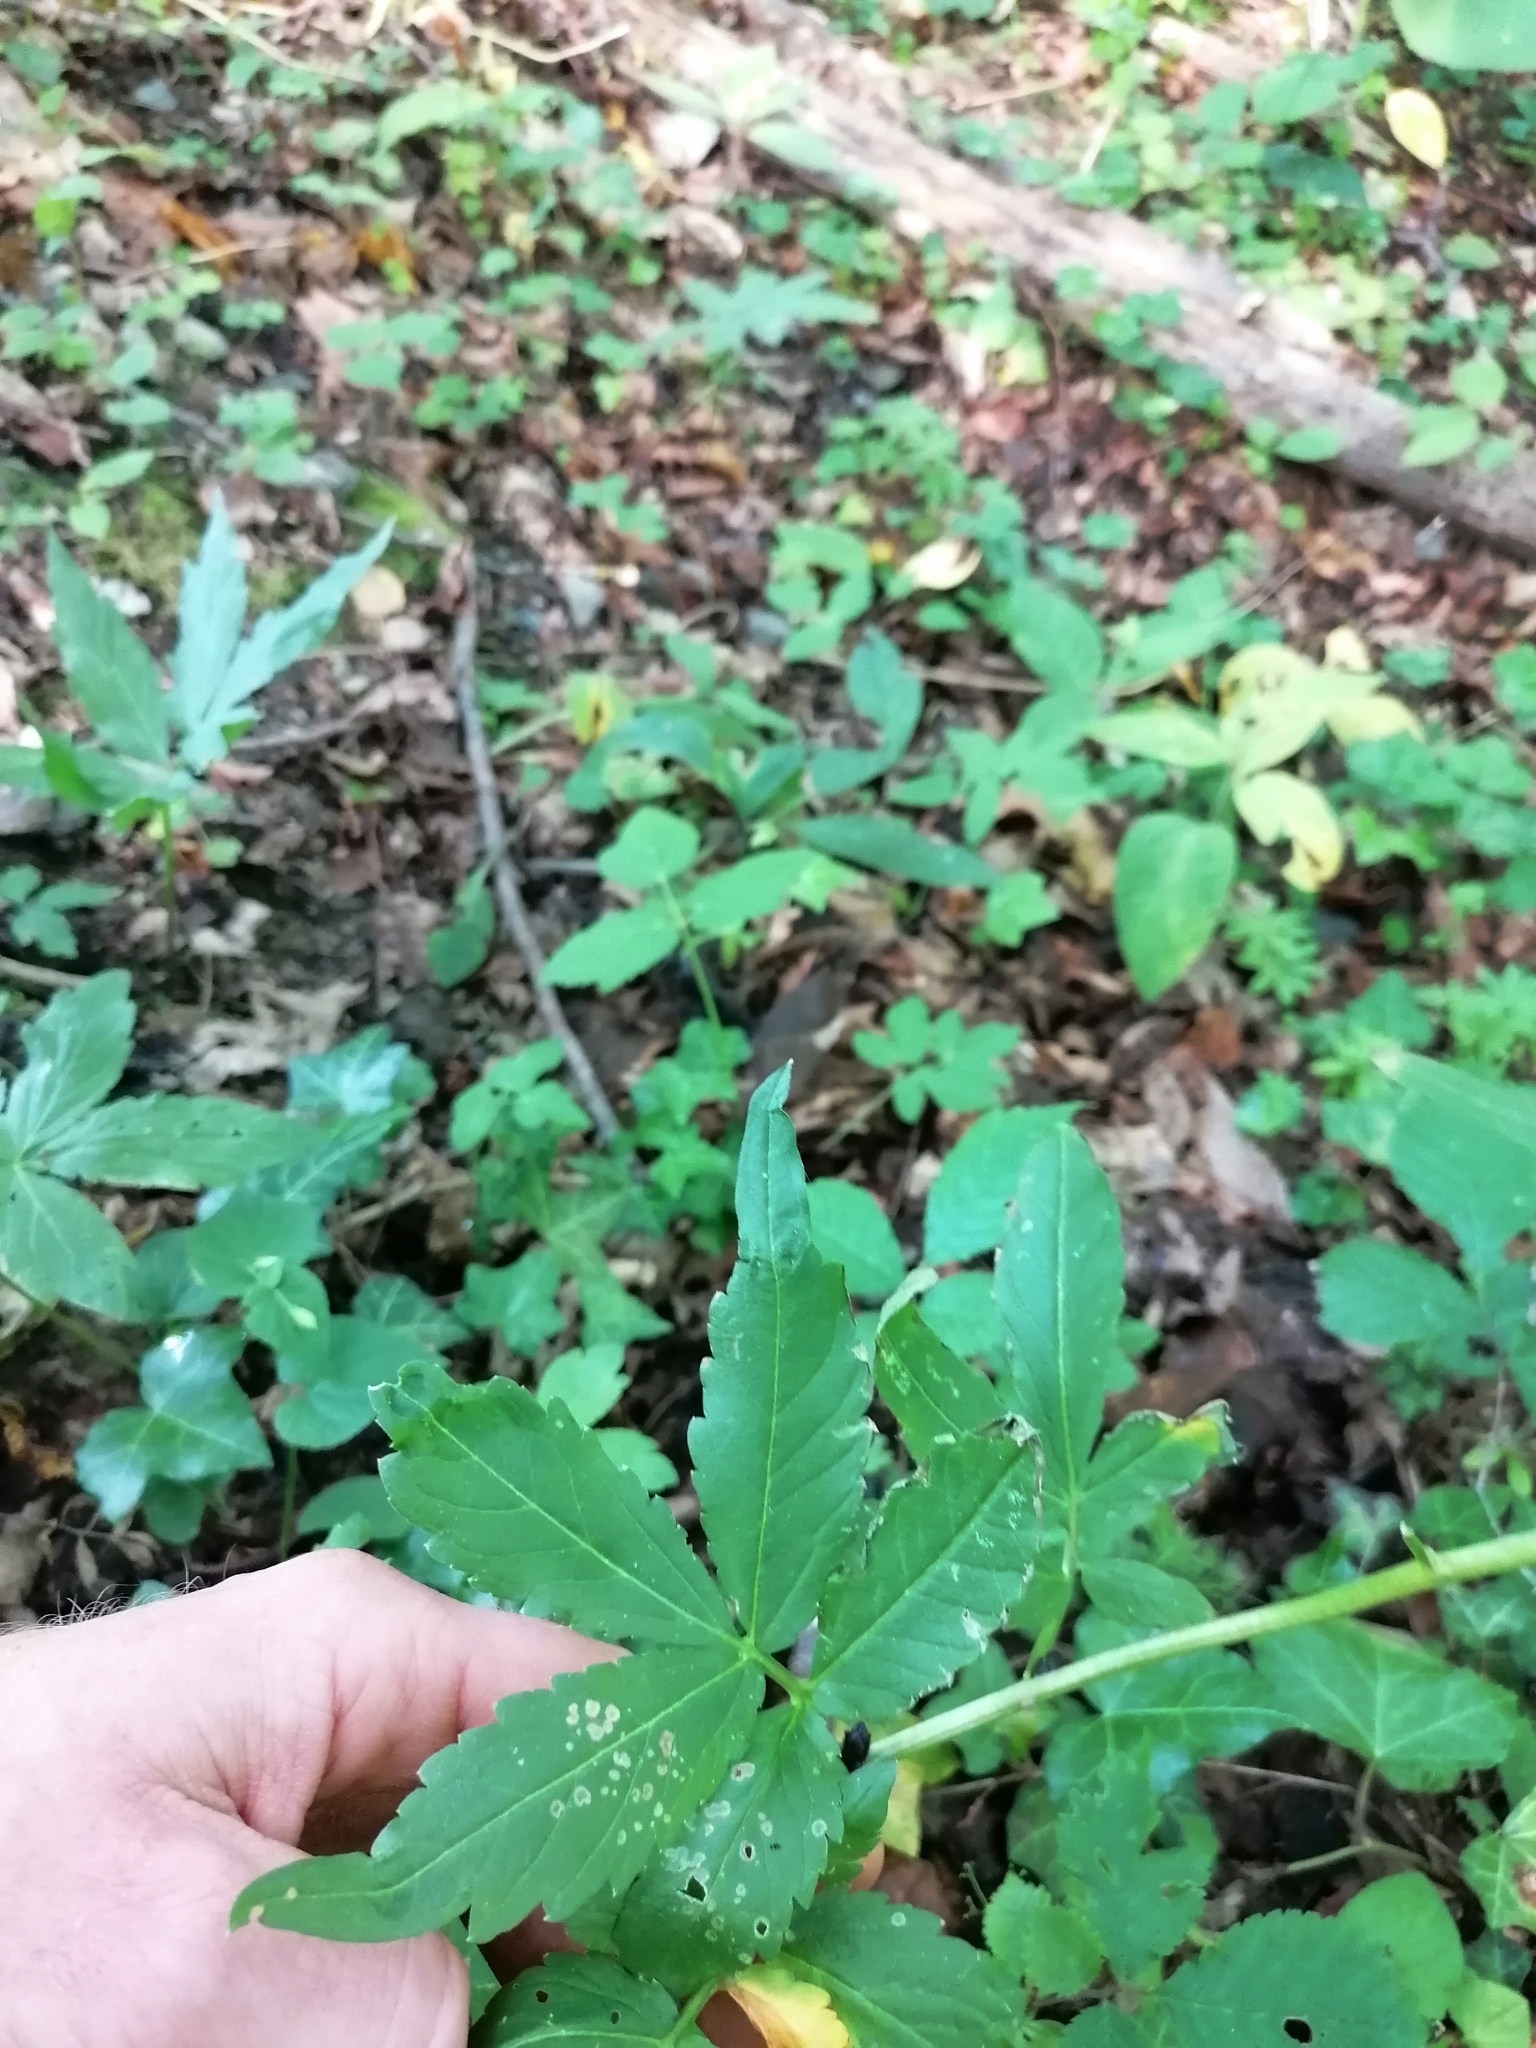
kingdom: Plantae
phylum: Tracheophyta
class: Magnoliopsida
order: Brassicales
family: Brassicaceae
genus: Cardamine
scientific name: Cardamine bulbifera
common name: Coralroot bittercress
